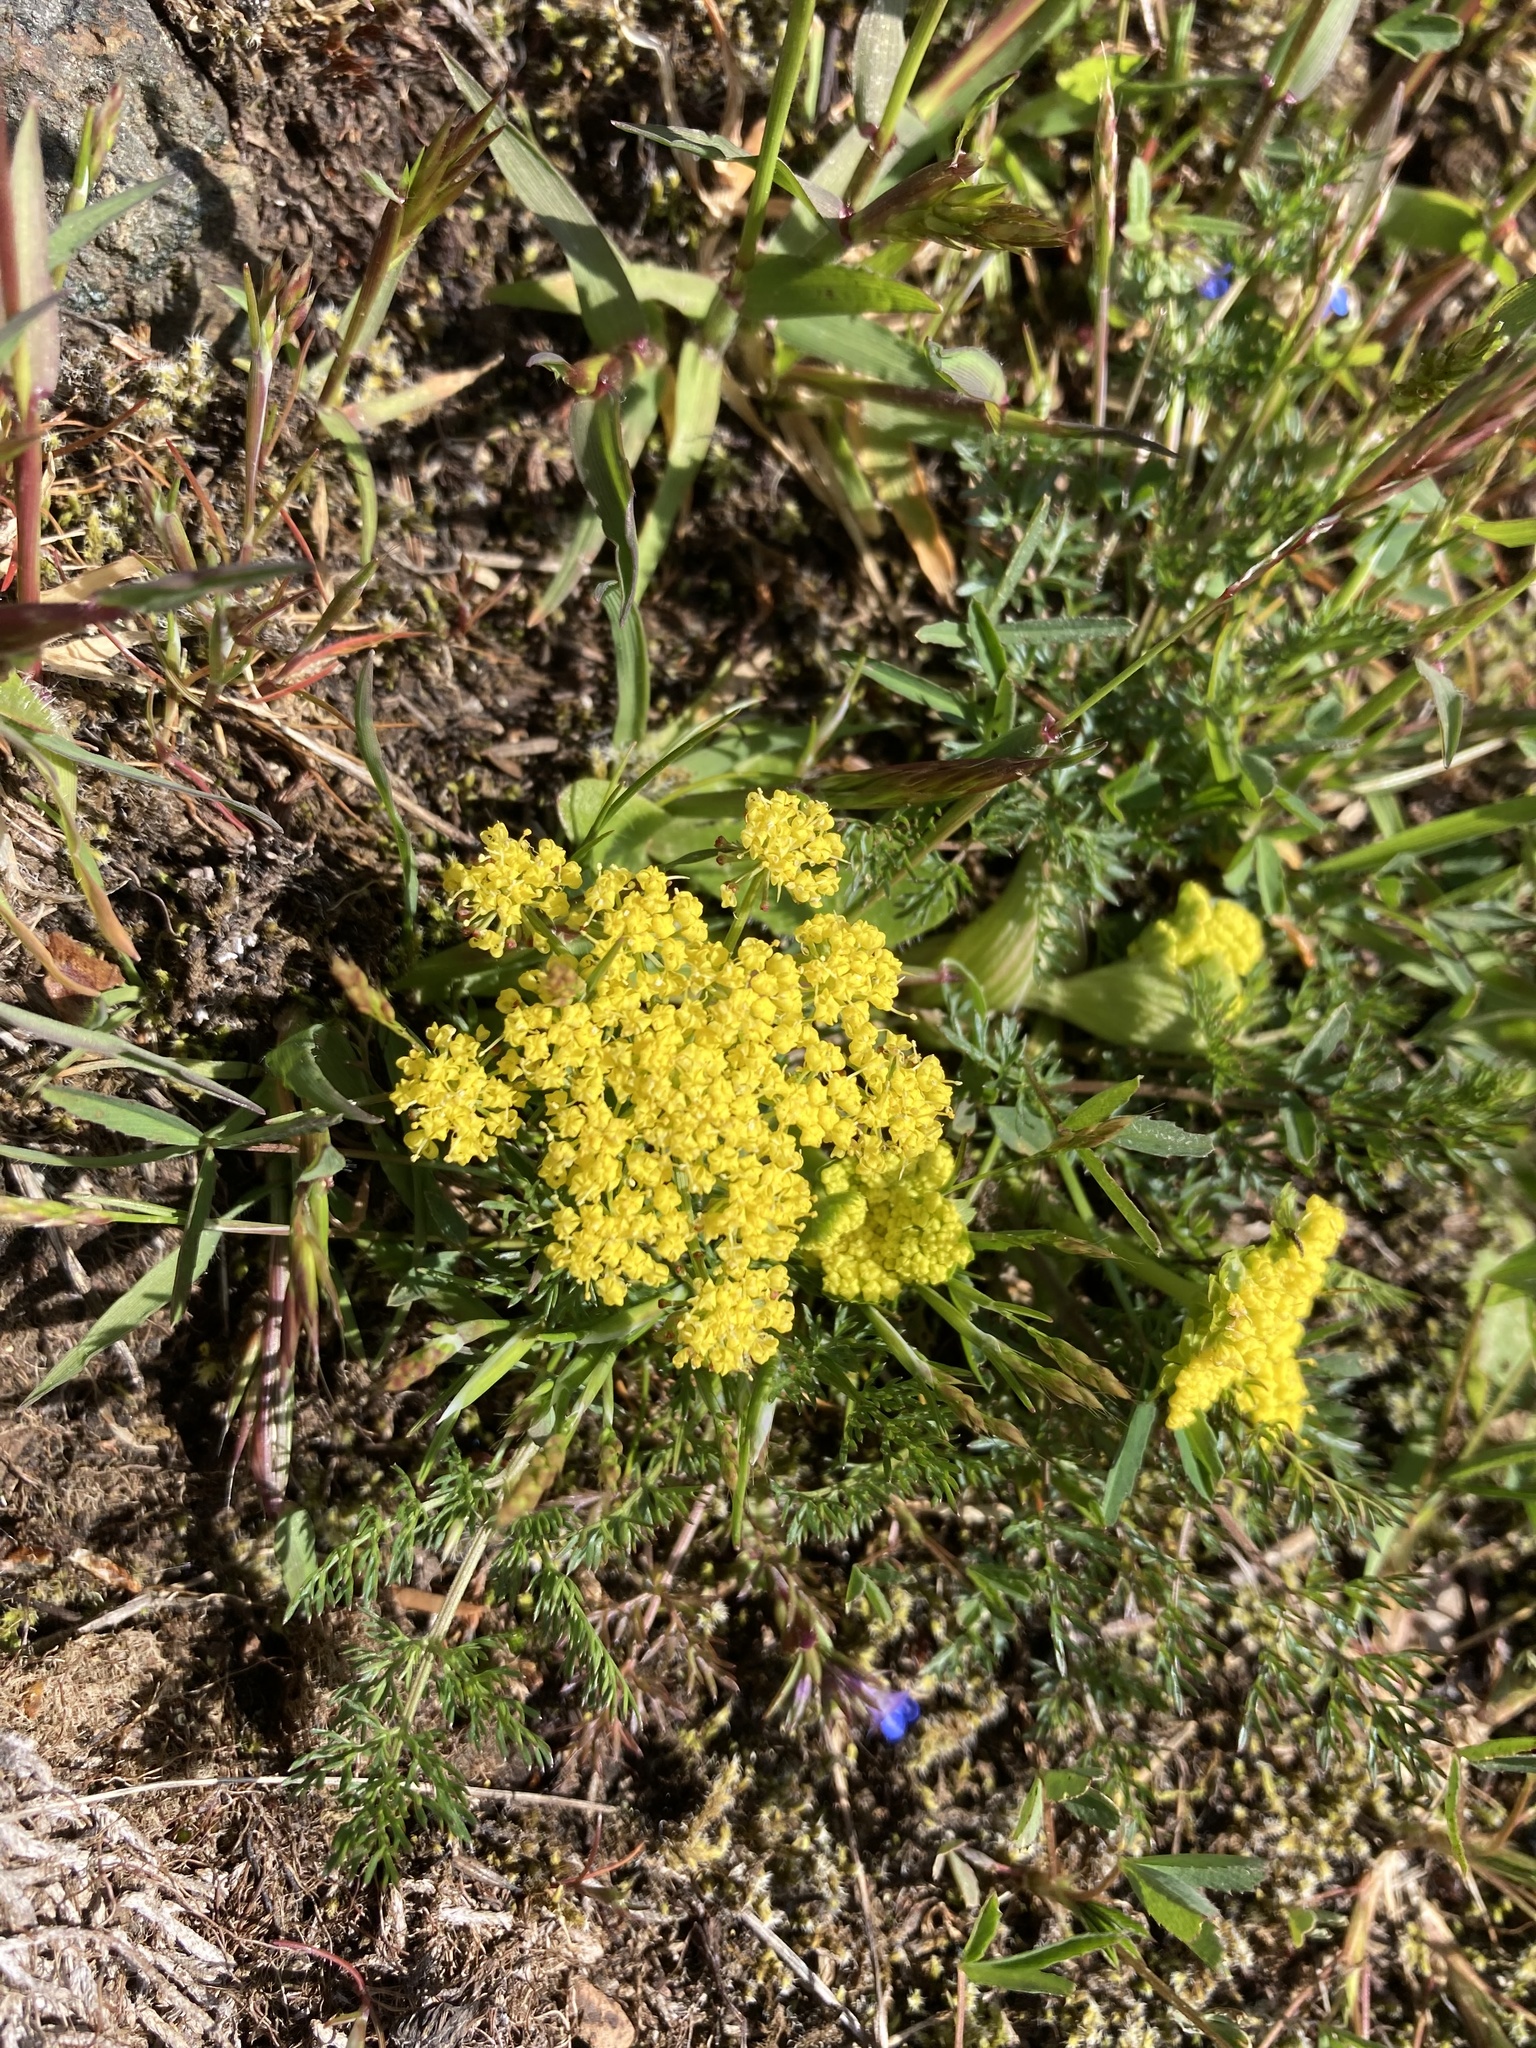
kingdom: Plantae
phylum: Tracheophyta
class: Magnoliopsida
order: Apiales
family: Apiaceae
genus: Lomatium
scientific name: Lomatium utriculatum
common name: Fine-leaf desert-parsley
